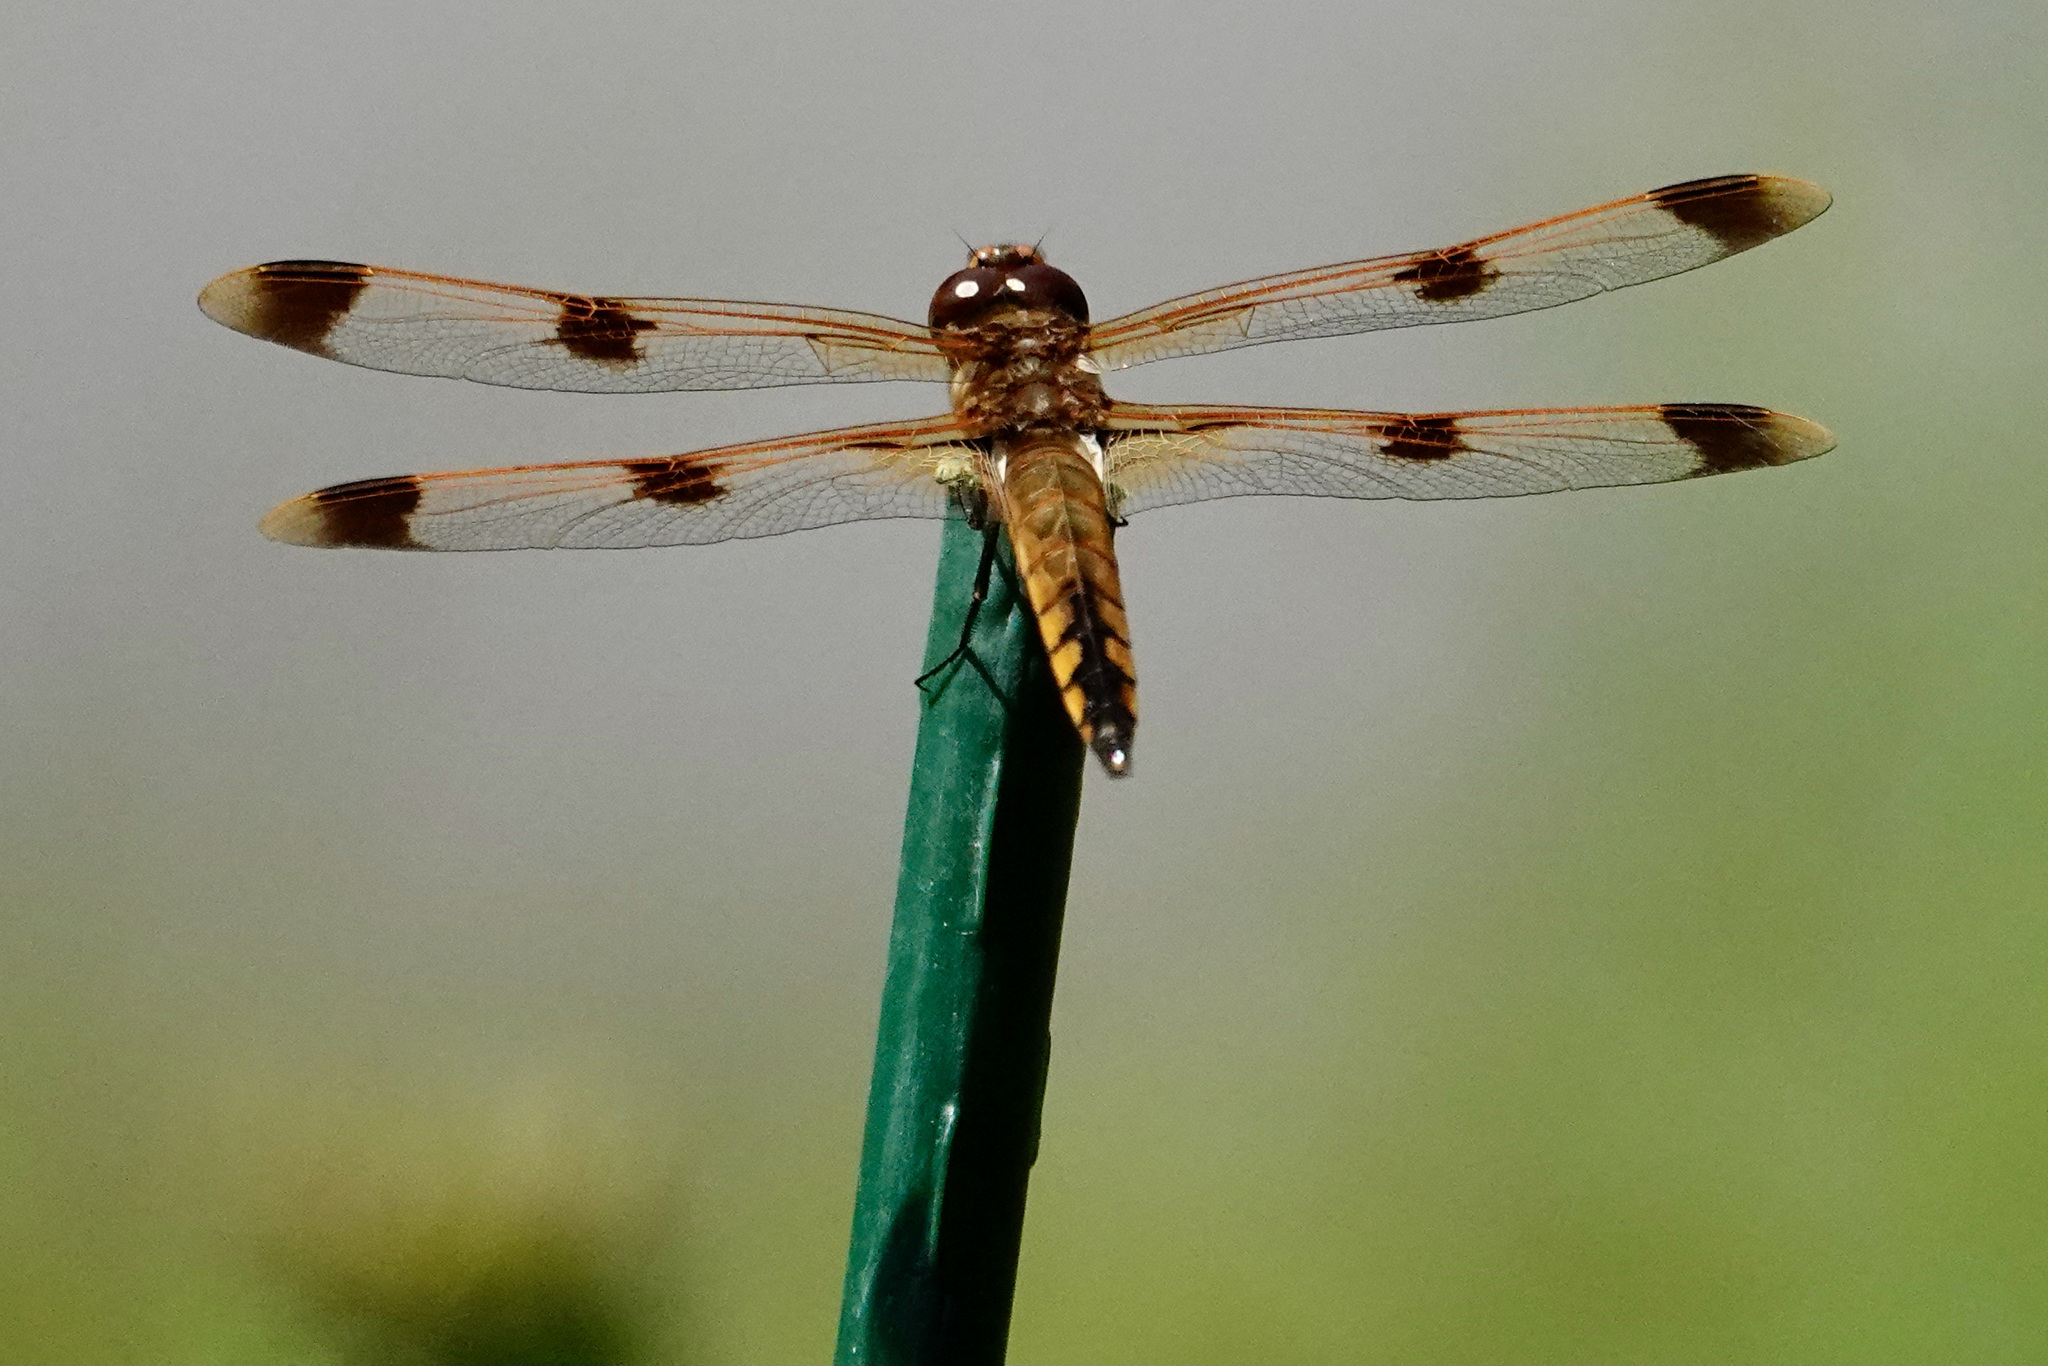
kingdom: Animalia
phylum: Arthropoda
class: Insecta
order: Odonata
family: Libellulidae
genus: Libellula
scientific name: Libellula semifasciata
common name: Painted skimmer
